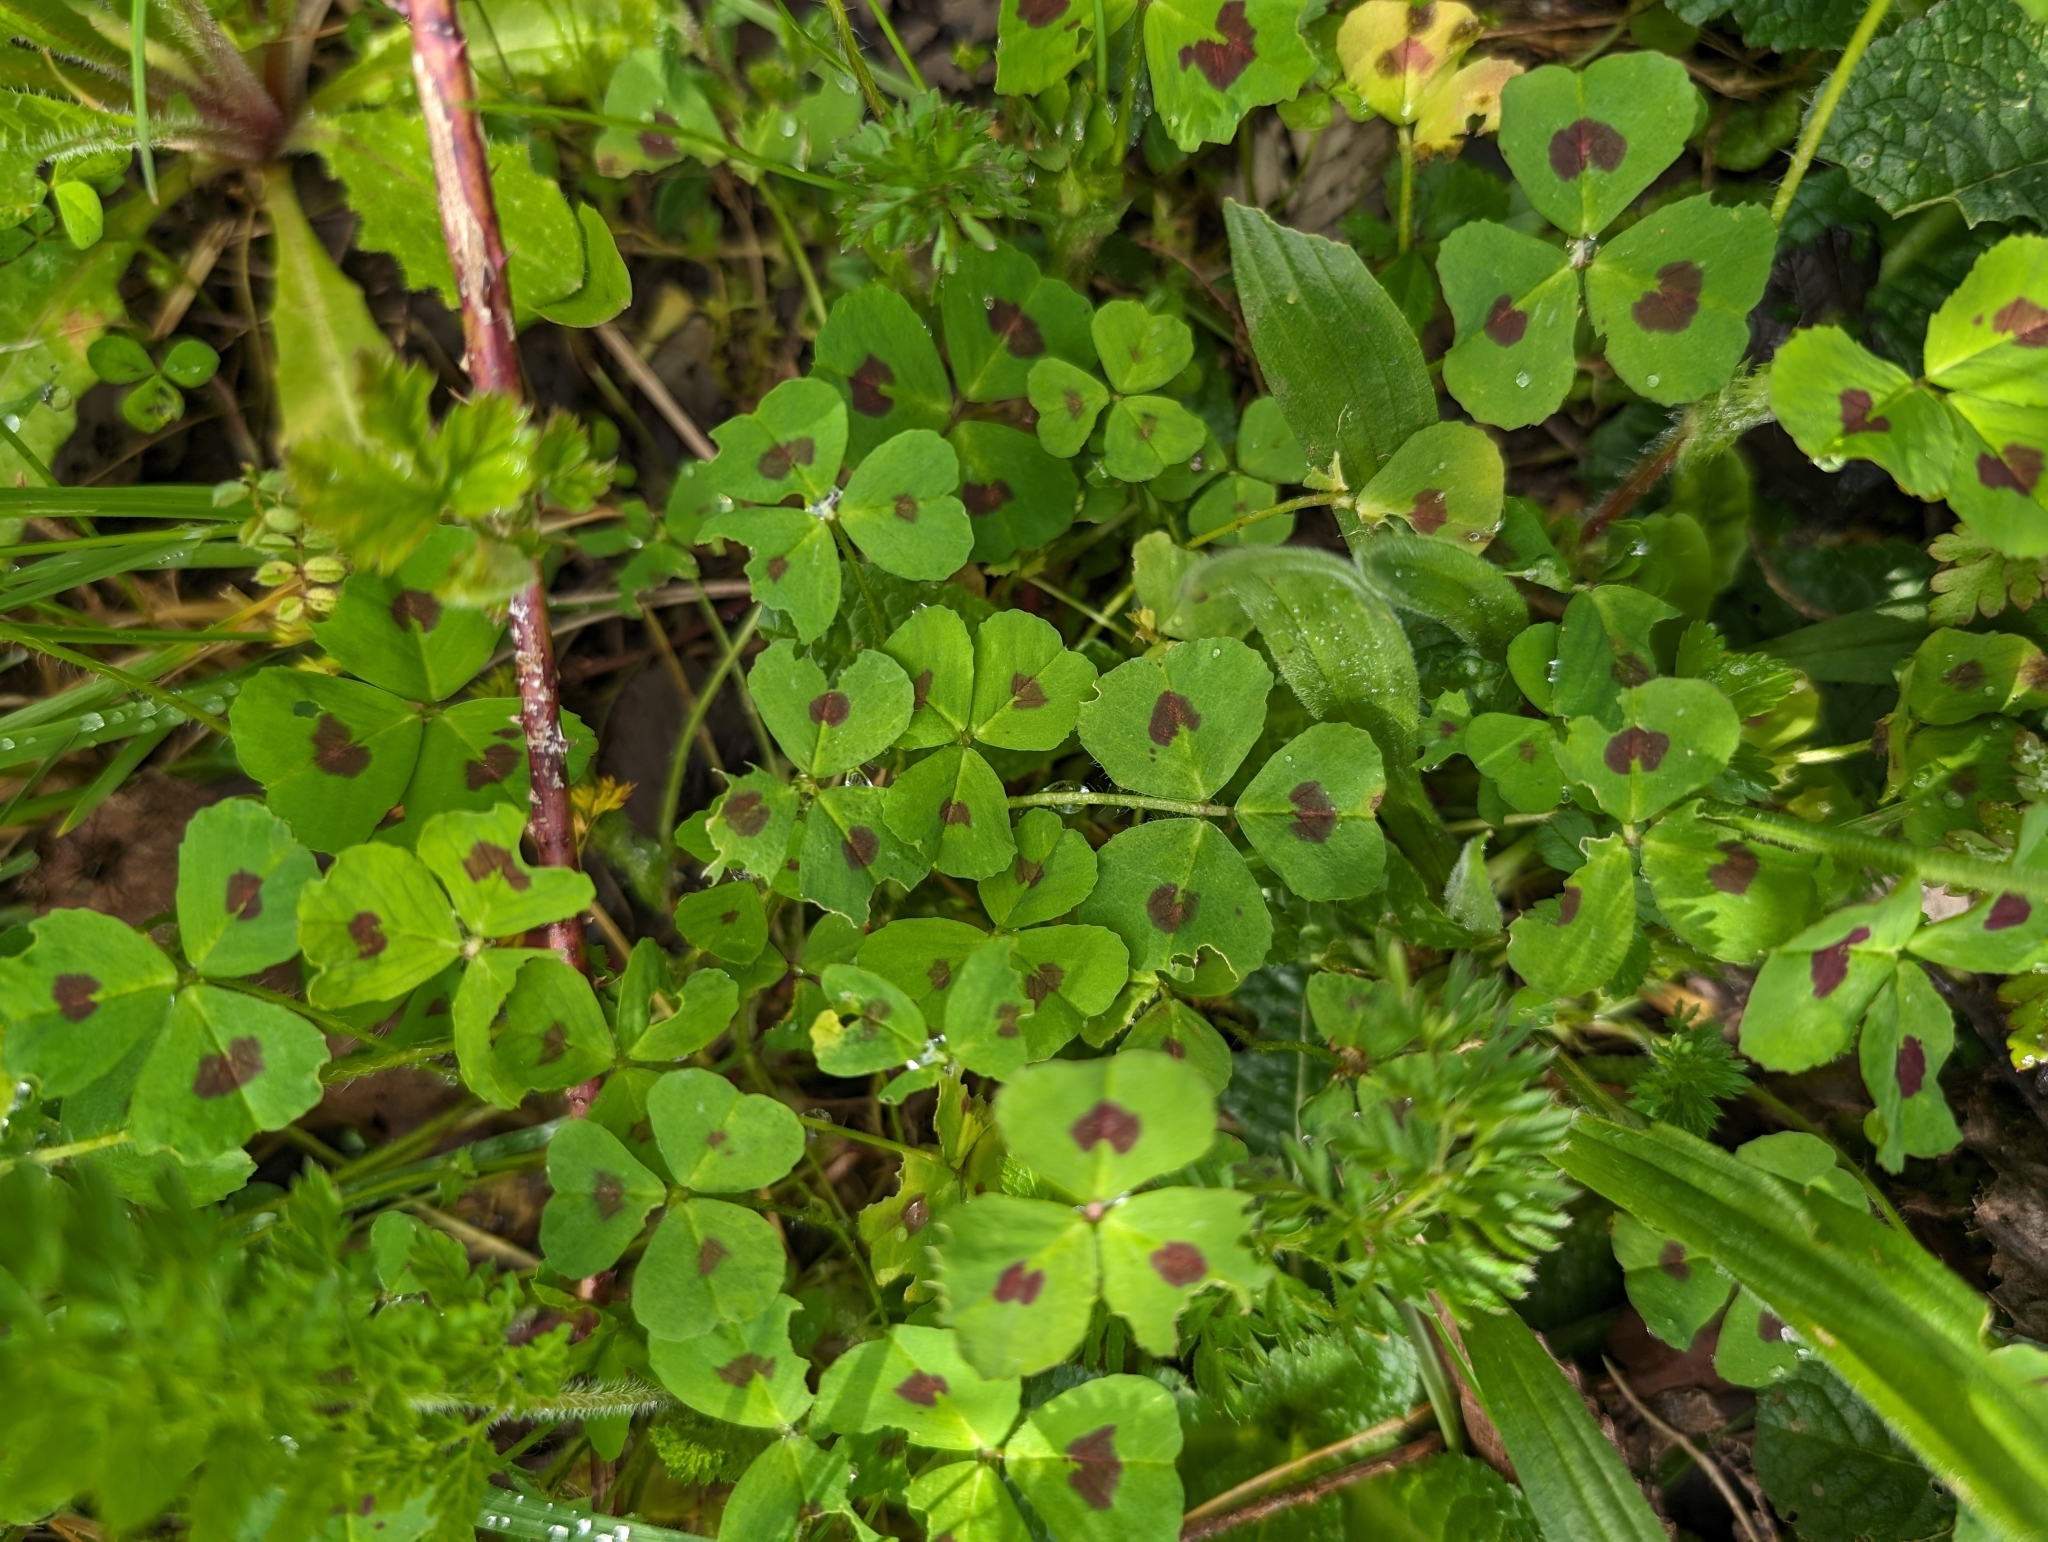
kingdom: Plantae
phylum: Tracheophyta
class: Magnoliopsida
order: Fabales
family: Fabaceae
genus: Medicago
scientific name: Medicago arabica
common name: Spotted medick
